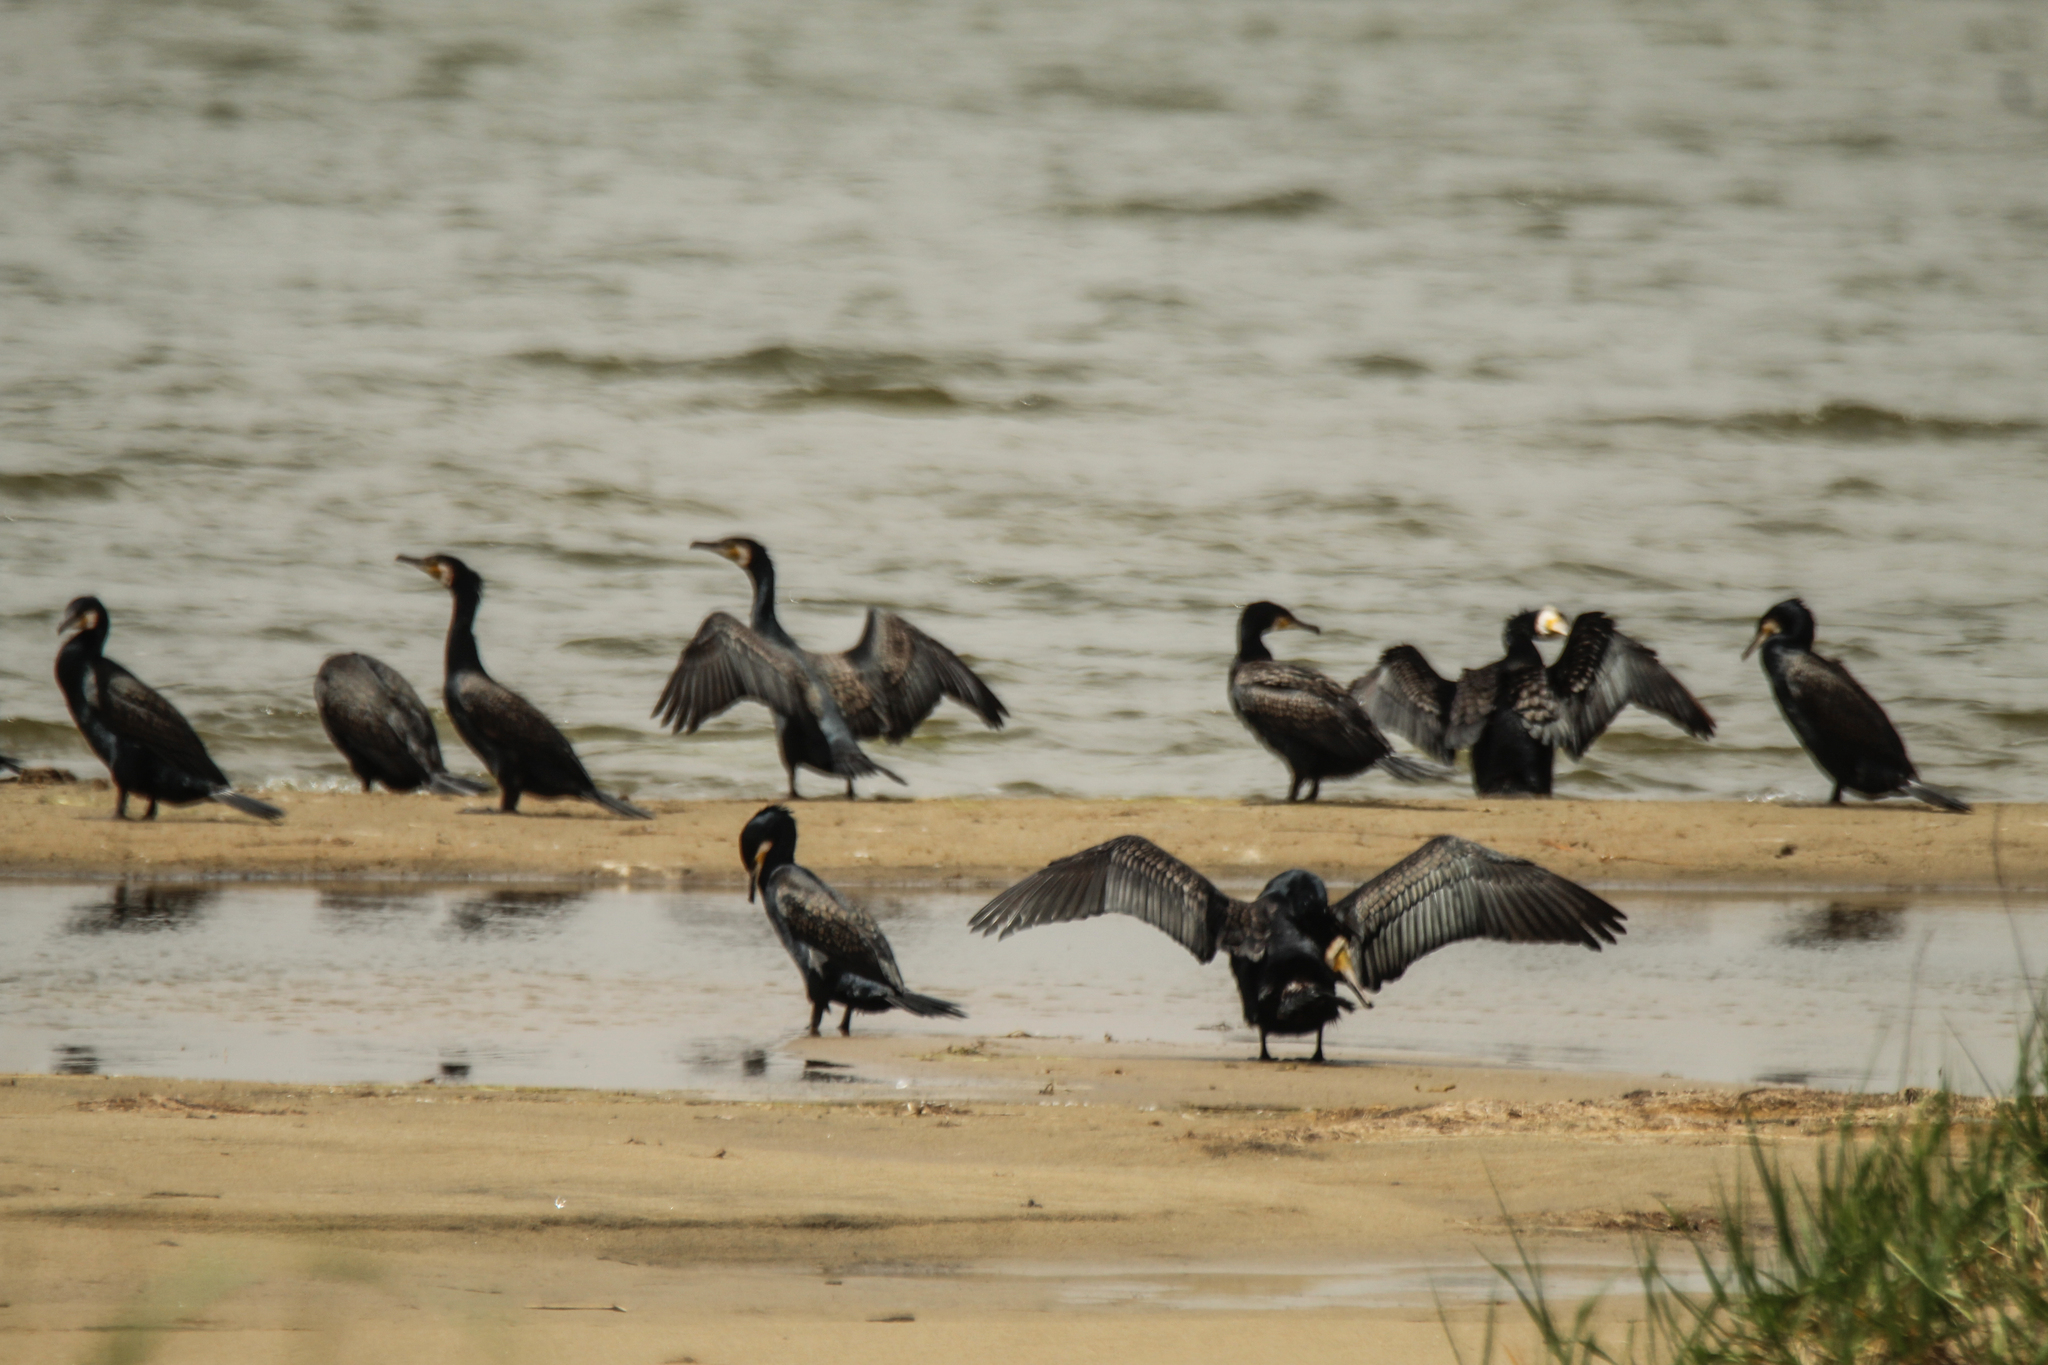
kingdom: Animalia
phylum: Chordata
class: Aves
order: Suliformes
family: Phalacrocoracidae
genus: Phalacrocorax
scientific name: Phalacrocorax carbo
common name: Great cormorant
